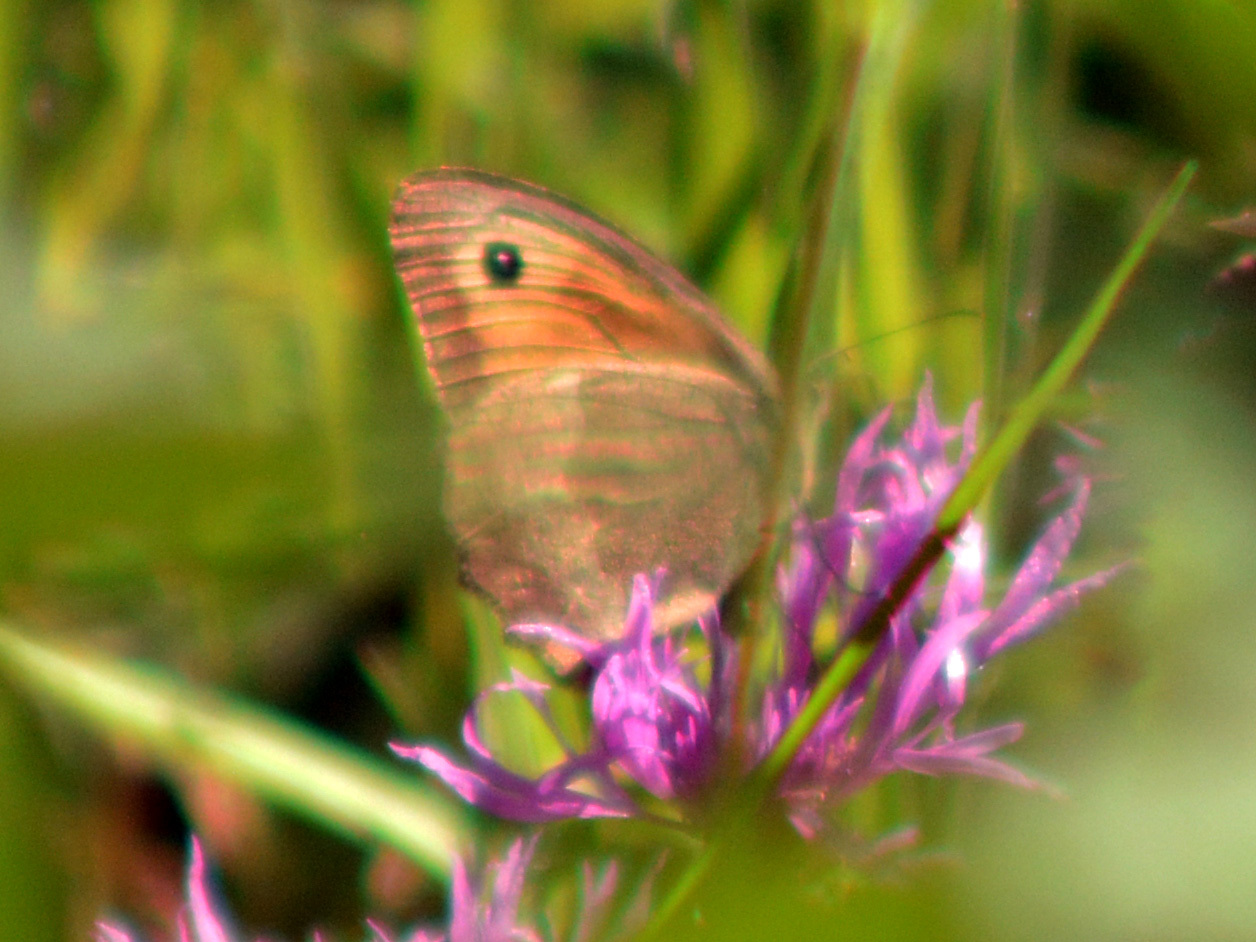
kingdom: Animalia
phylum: Arthropoda
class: Insecta
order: Lepidoptera
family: Nymphalidae
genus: Maniola
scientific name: Maniola jurtina
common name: Meadow brown
